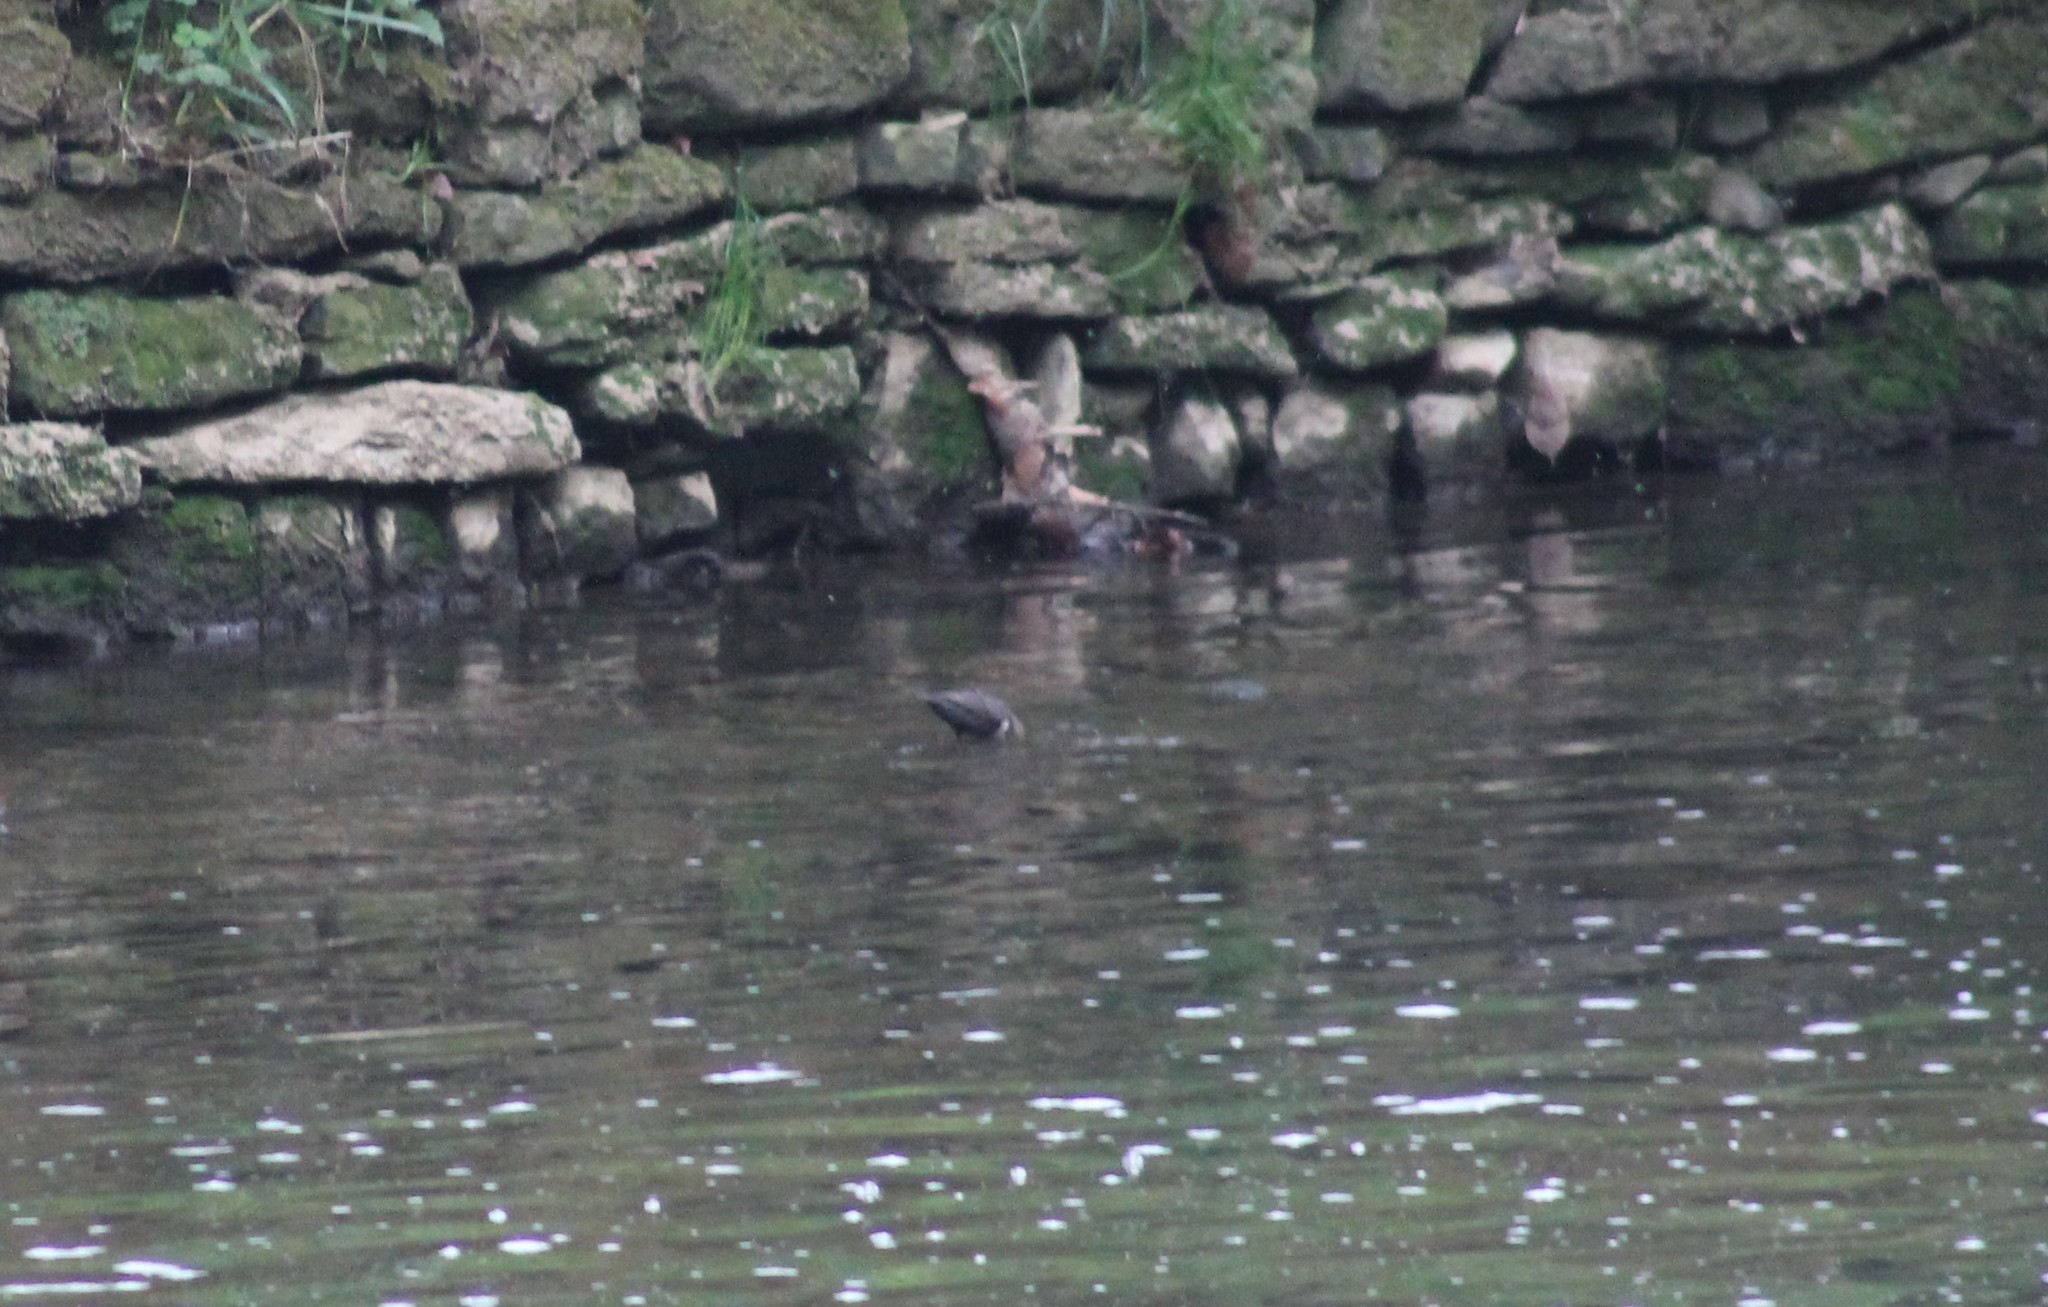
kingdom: Animalia
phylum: Chordata
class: Aves
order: Passeriformes
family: Cinclidae
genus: Cinclus
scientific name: Cinclus cinclus
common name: White-throated dipper
